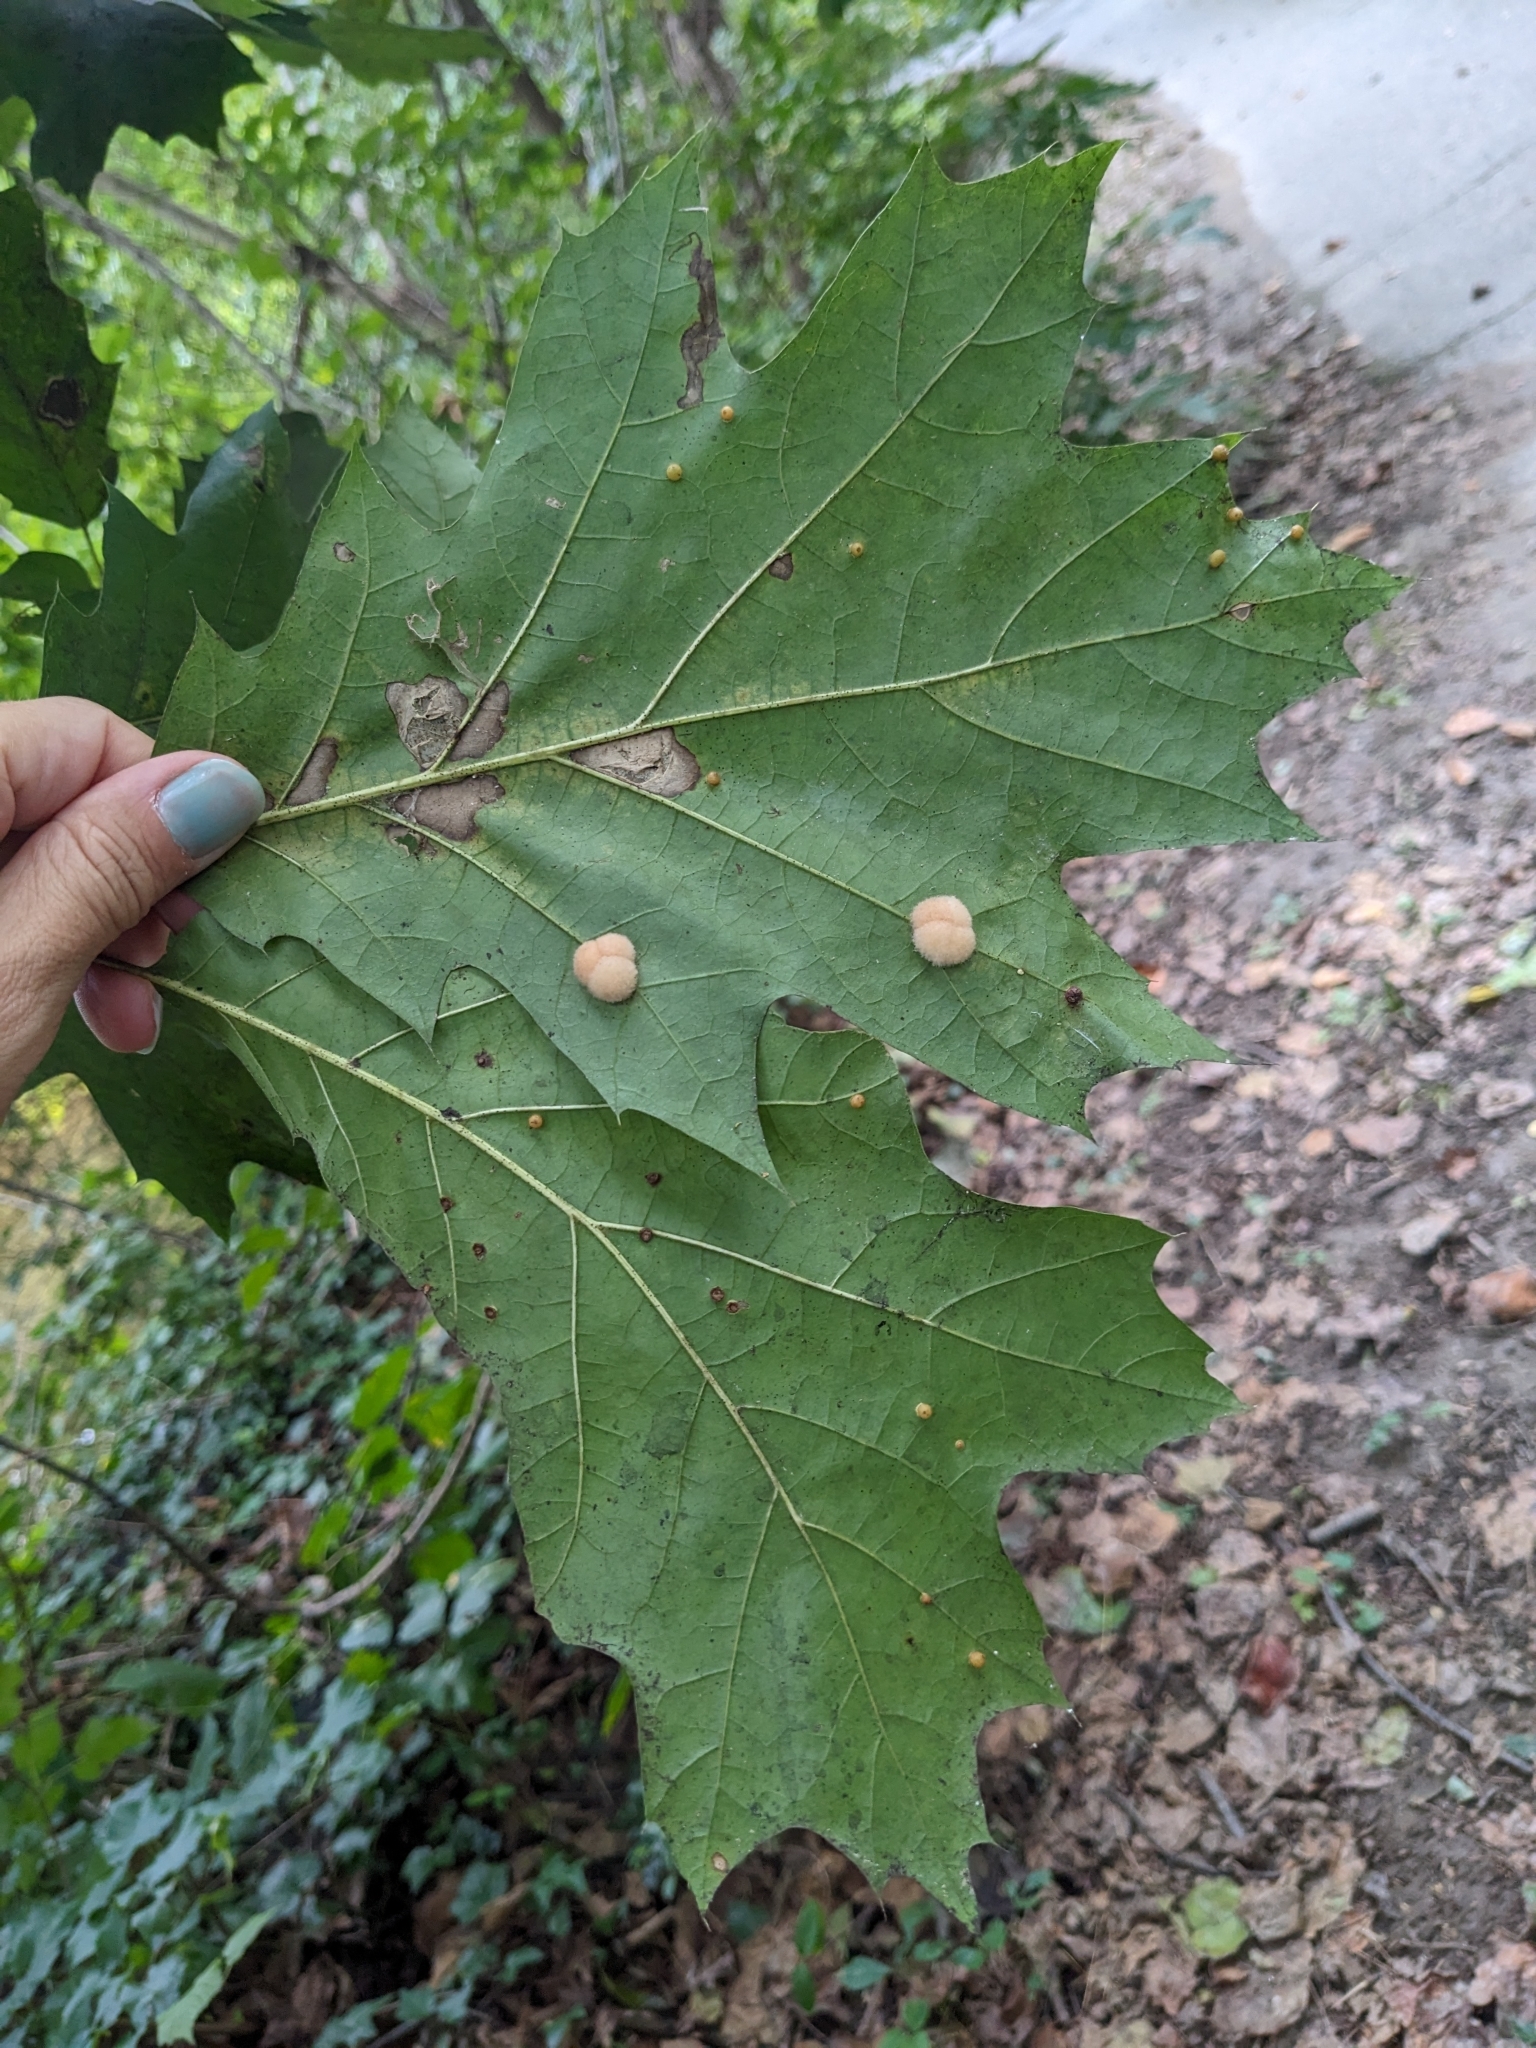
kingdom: Animalia
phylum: Arthropoda
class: Insecta
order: Hymenoptera
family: Cynipidae
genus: Callirhytis
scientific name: Callirhytis
